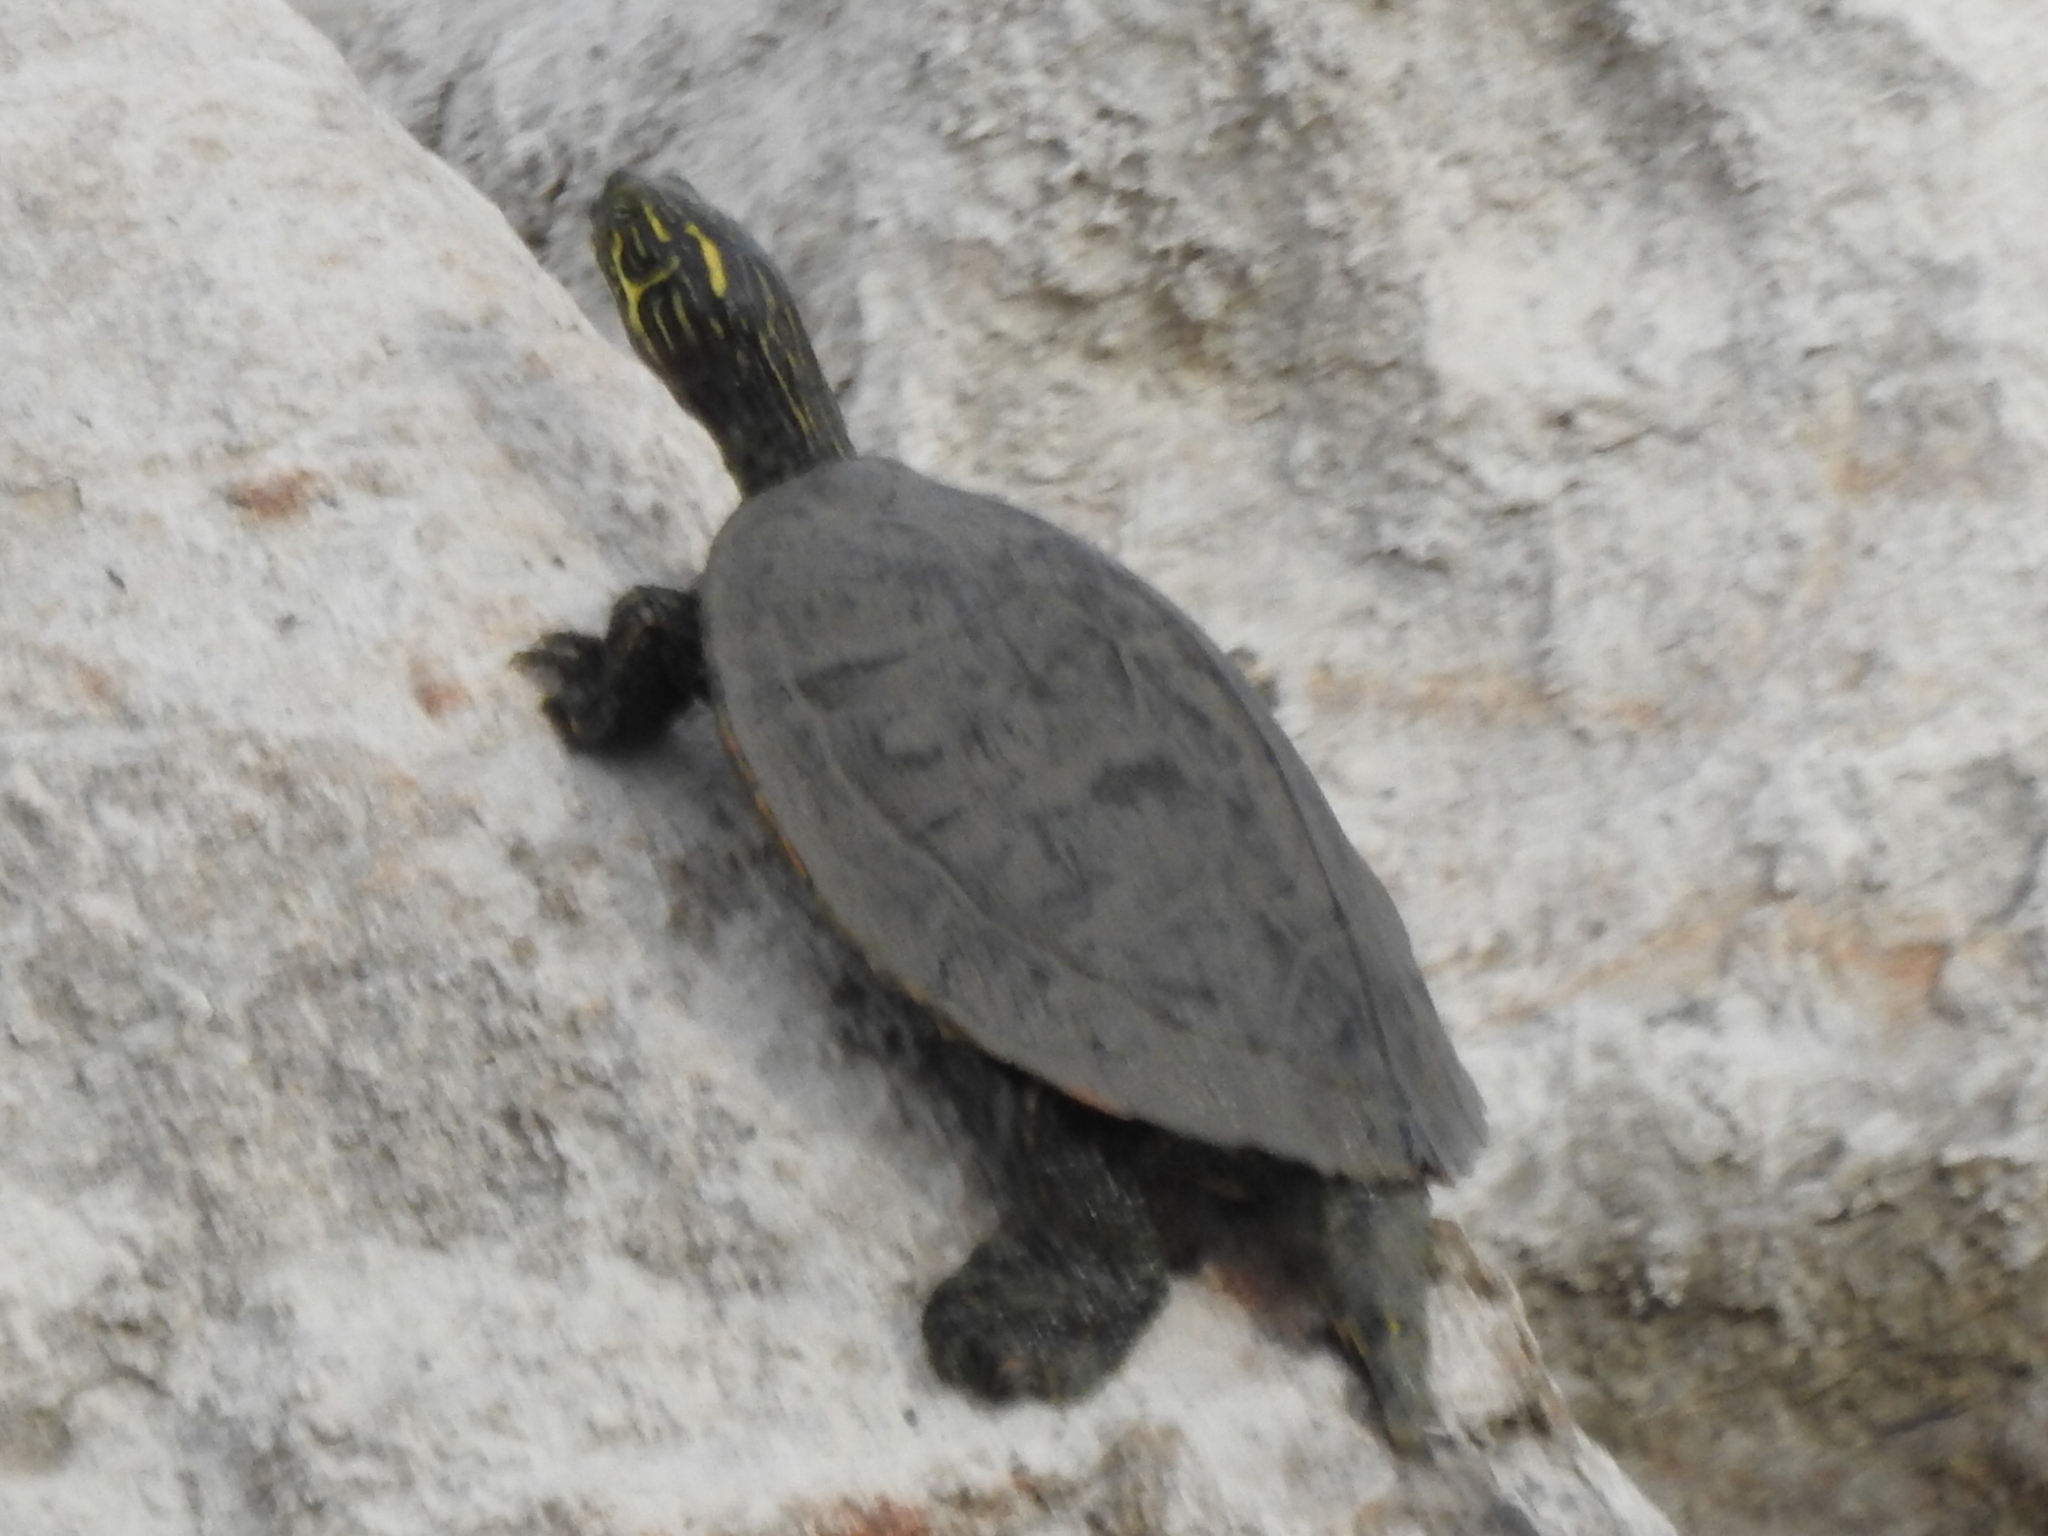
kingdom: Animalia
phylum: Chordata
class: Testudines
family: Emydidae
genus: Pseudemys
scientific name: Pseudemys texana
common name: Texas river cooter
